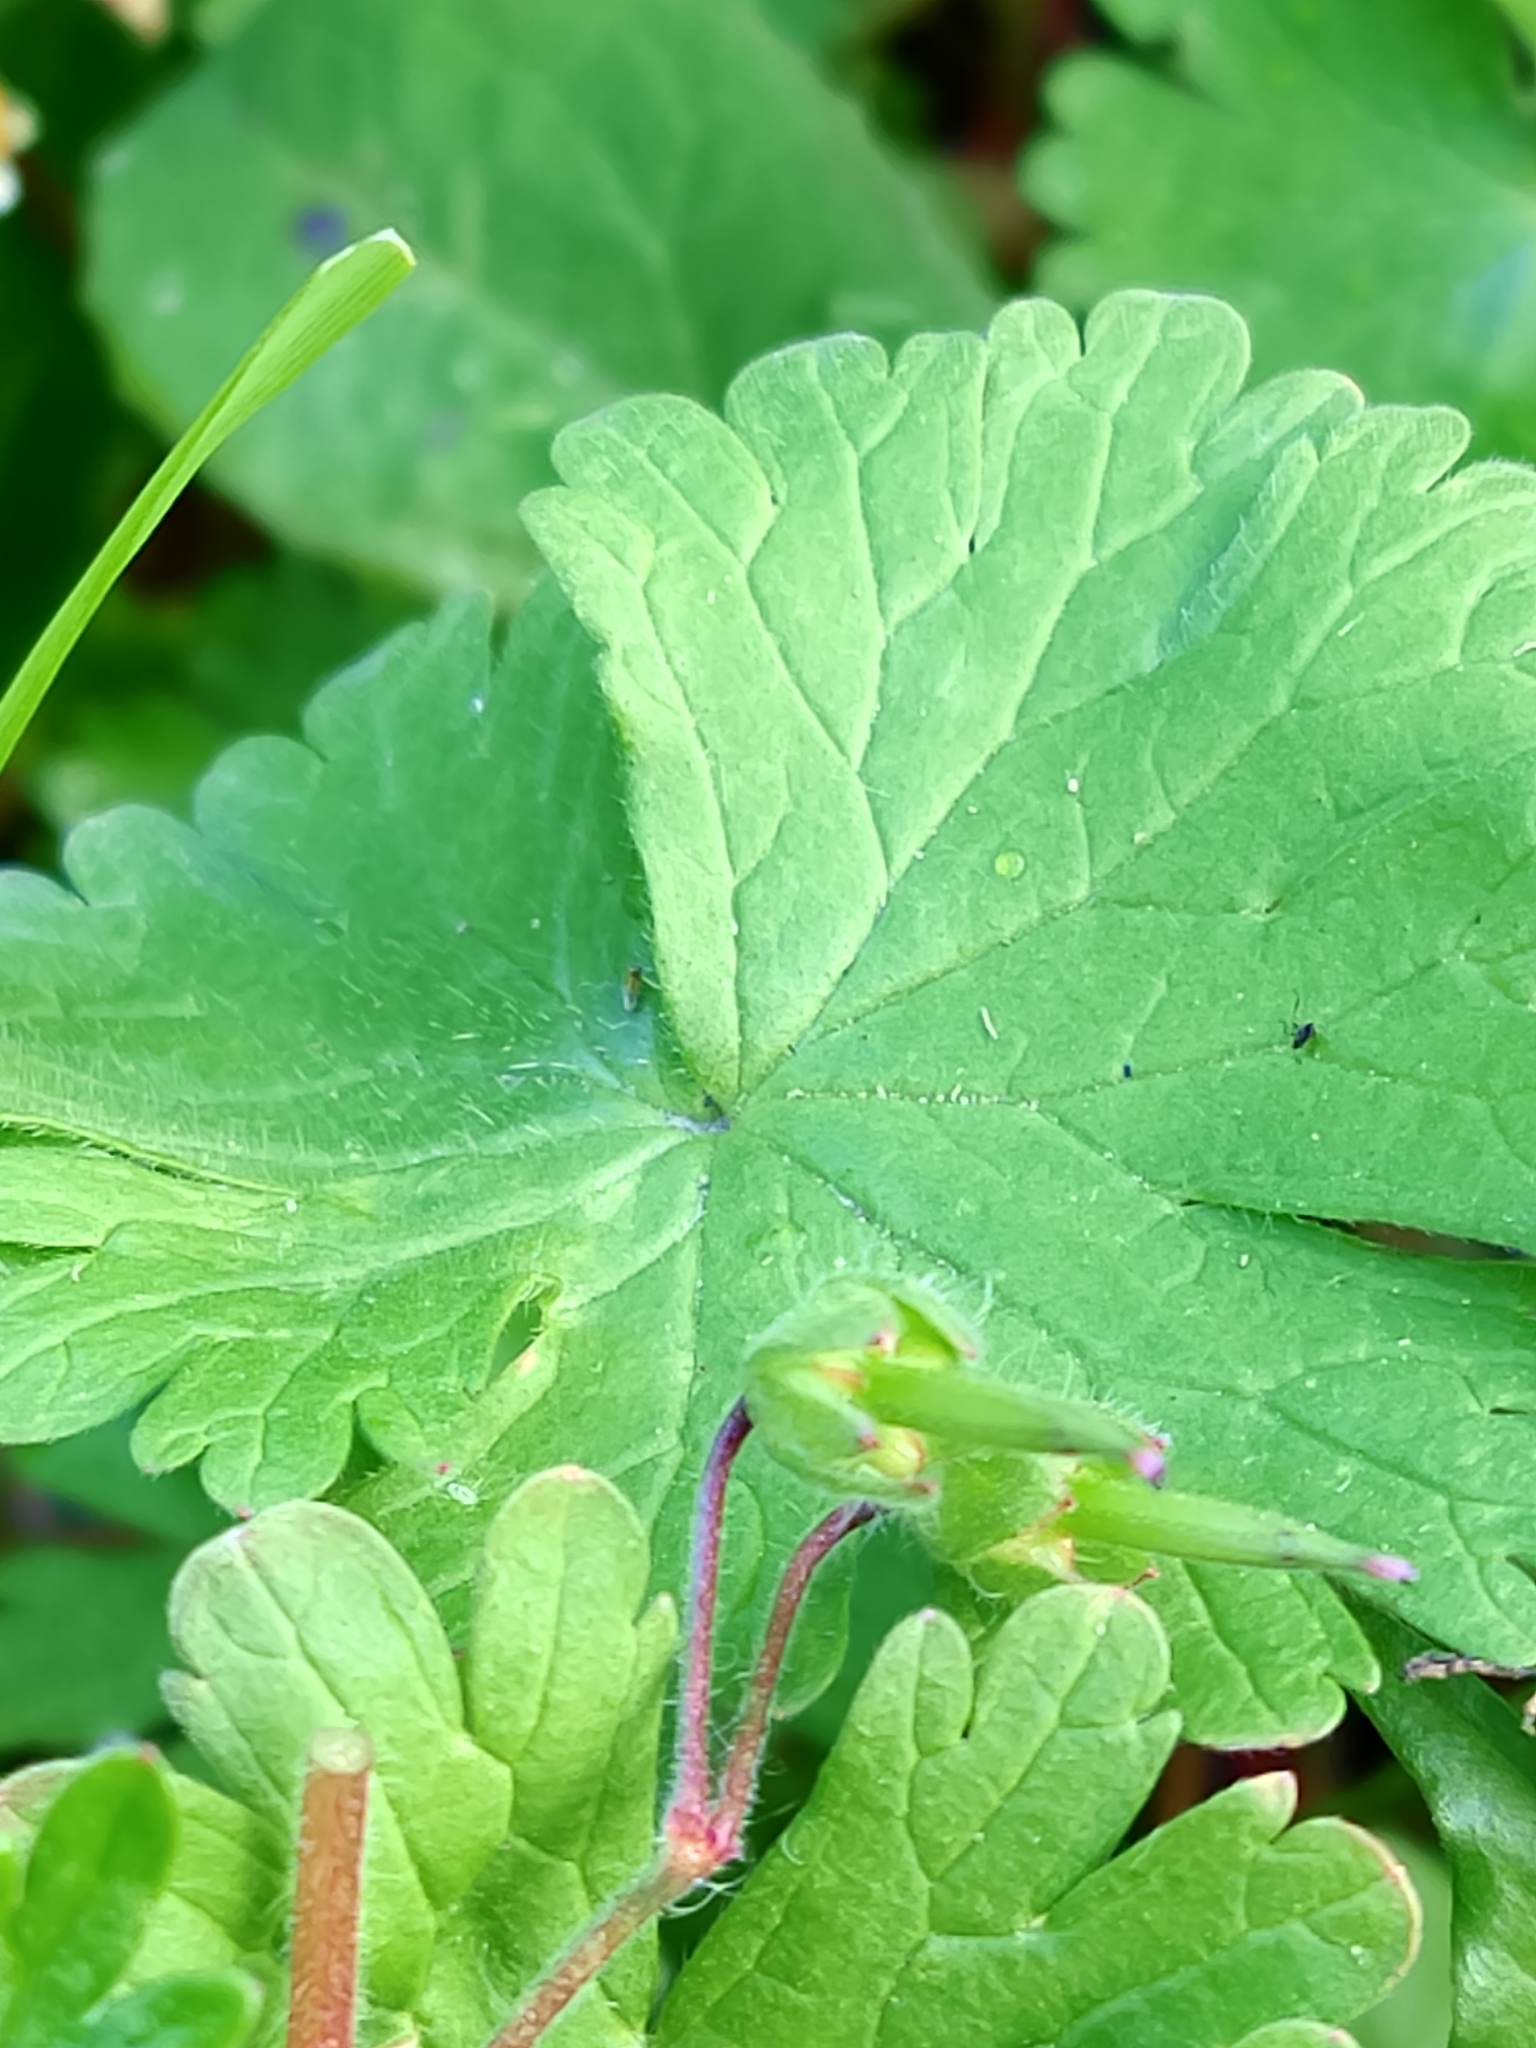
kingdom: Plantae
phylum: Tracheophyta
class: Magnoliopsida
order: Geraniales
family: Geraniaceae
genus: Geranium
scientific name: Geranium molle
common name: Dove's-foot crane's-bill
